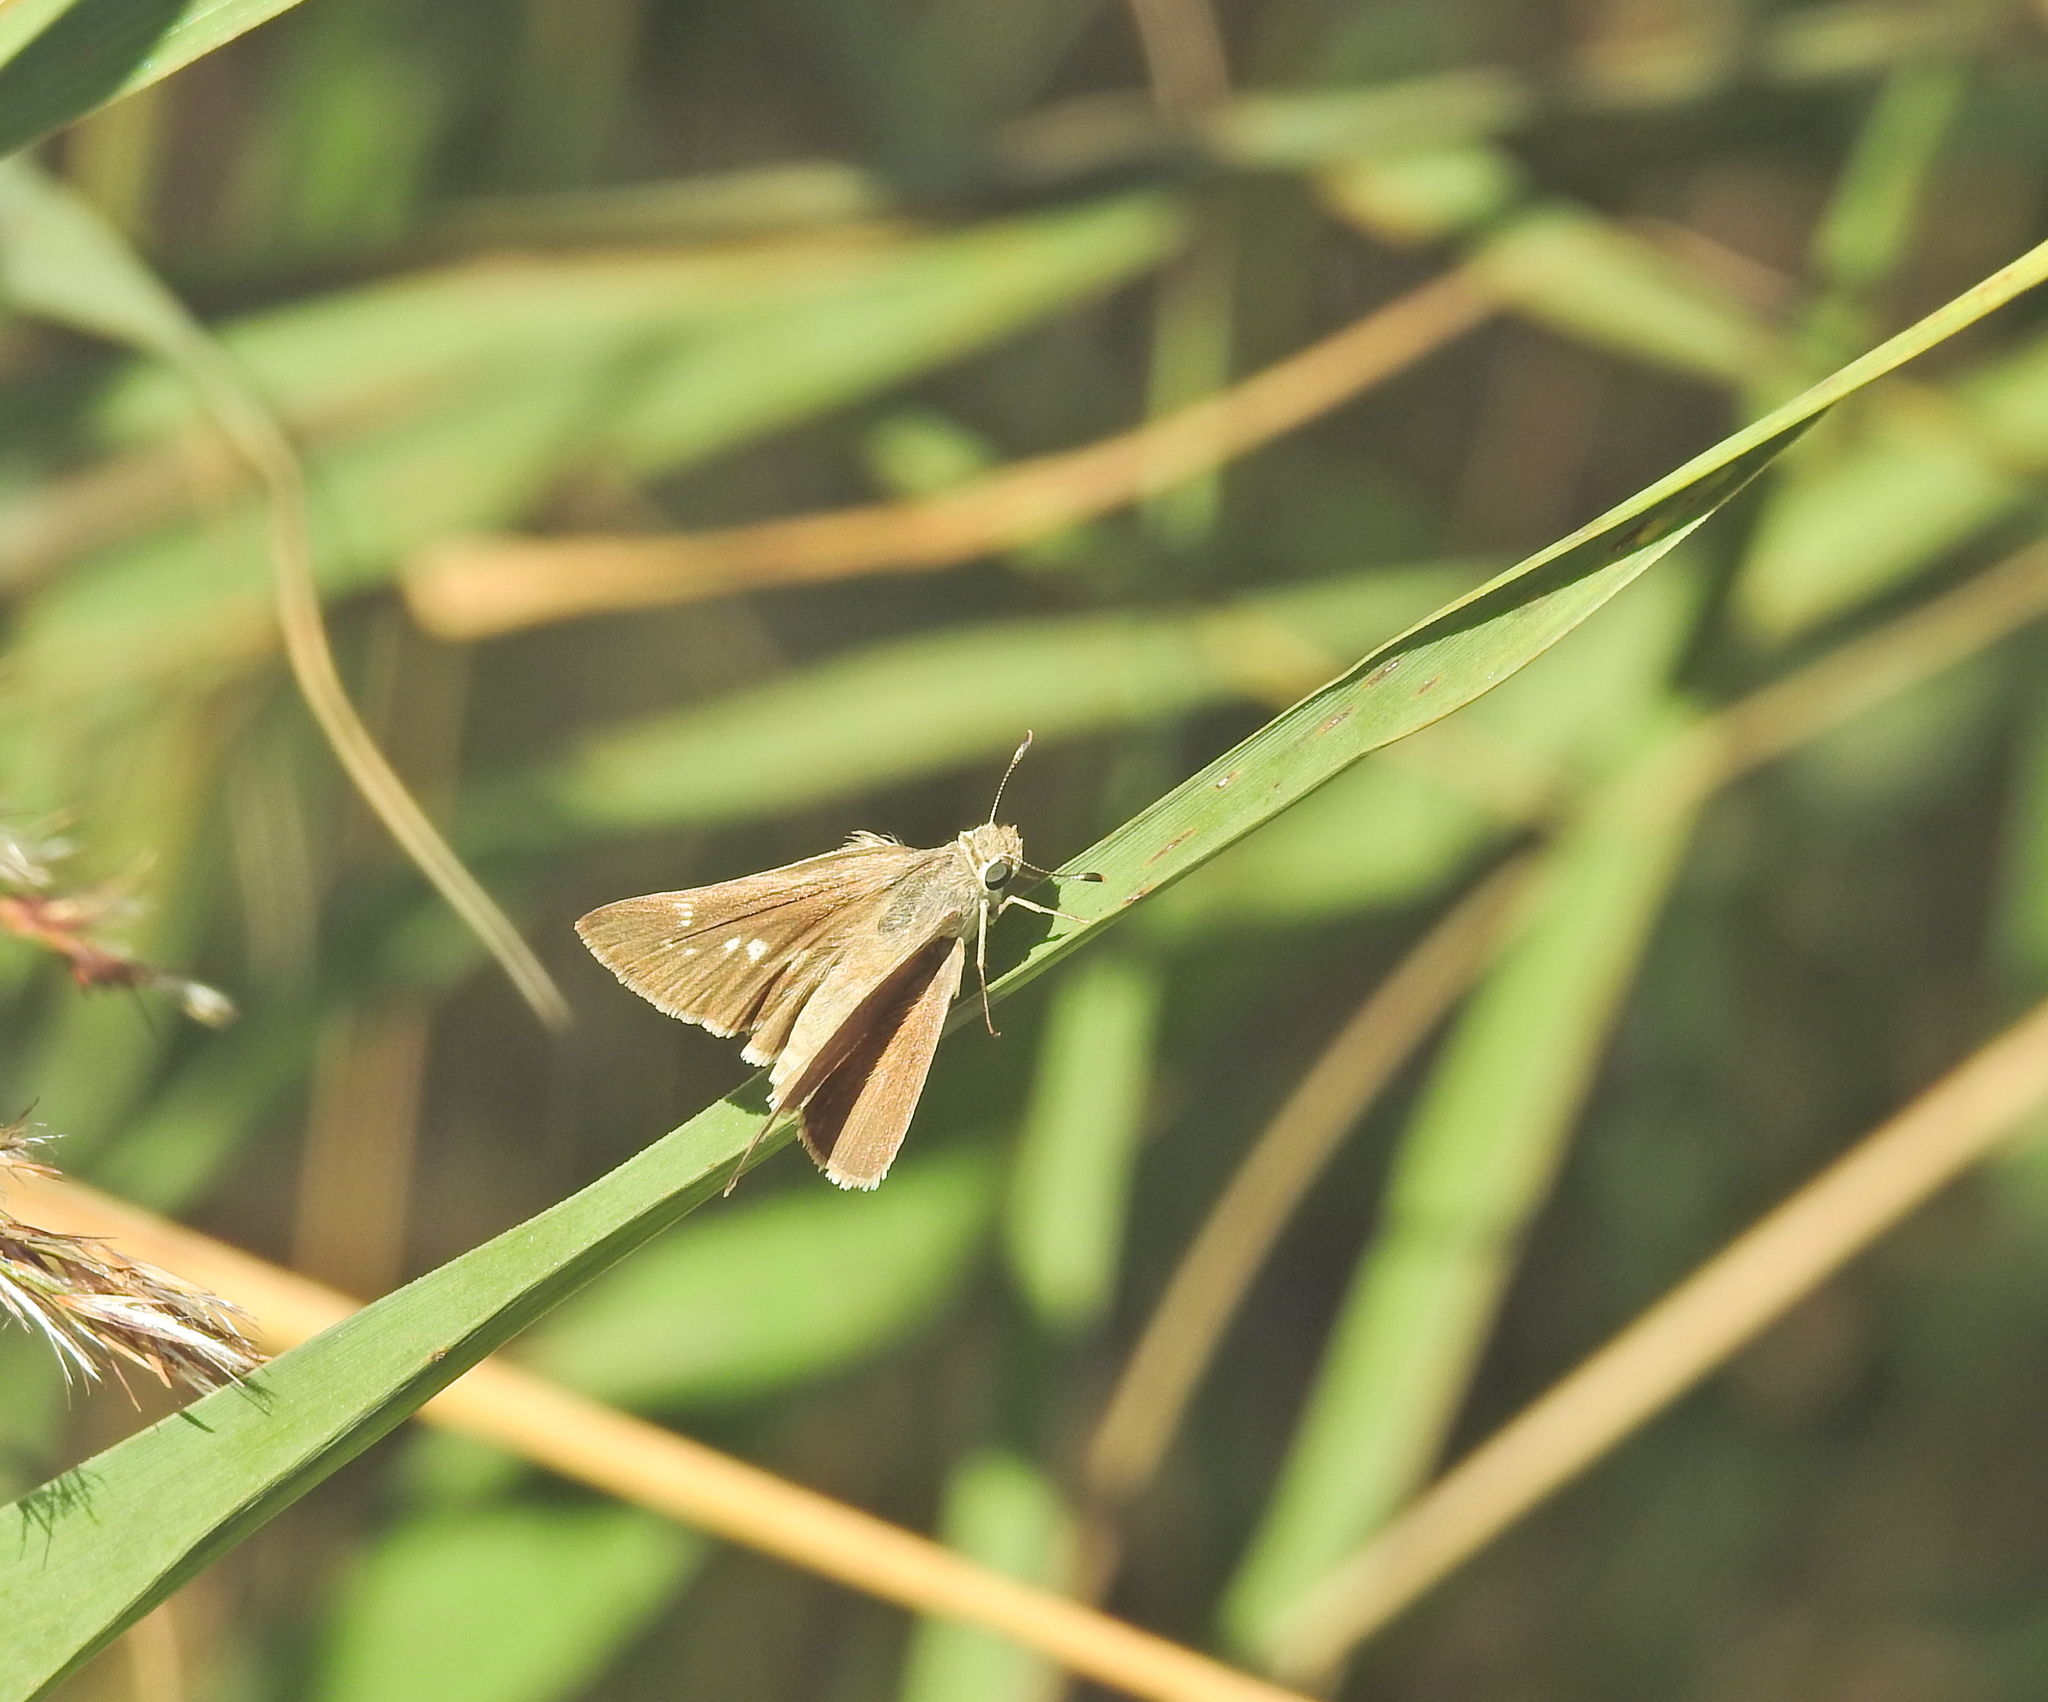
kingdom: Animalia
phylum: Arthropoda
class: Insecta
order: Lepidoptera
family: Hesperiidae
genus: Gegenes
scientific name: Gegenes nostrodamus
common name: Mediterranean skipper
